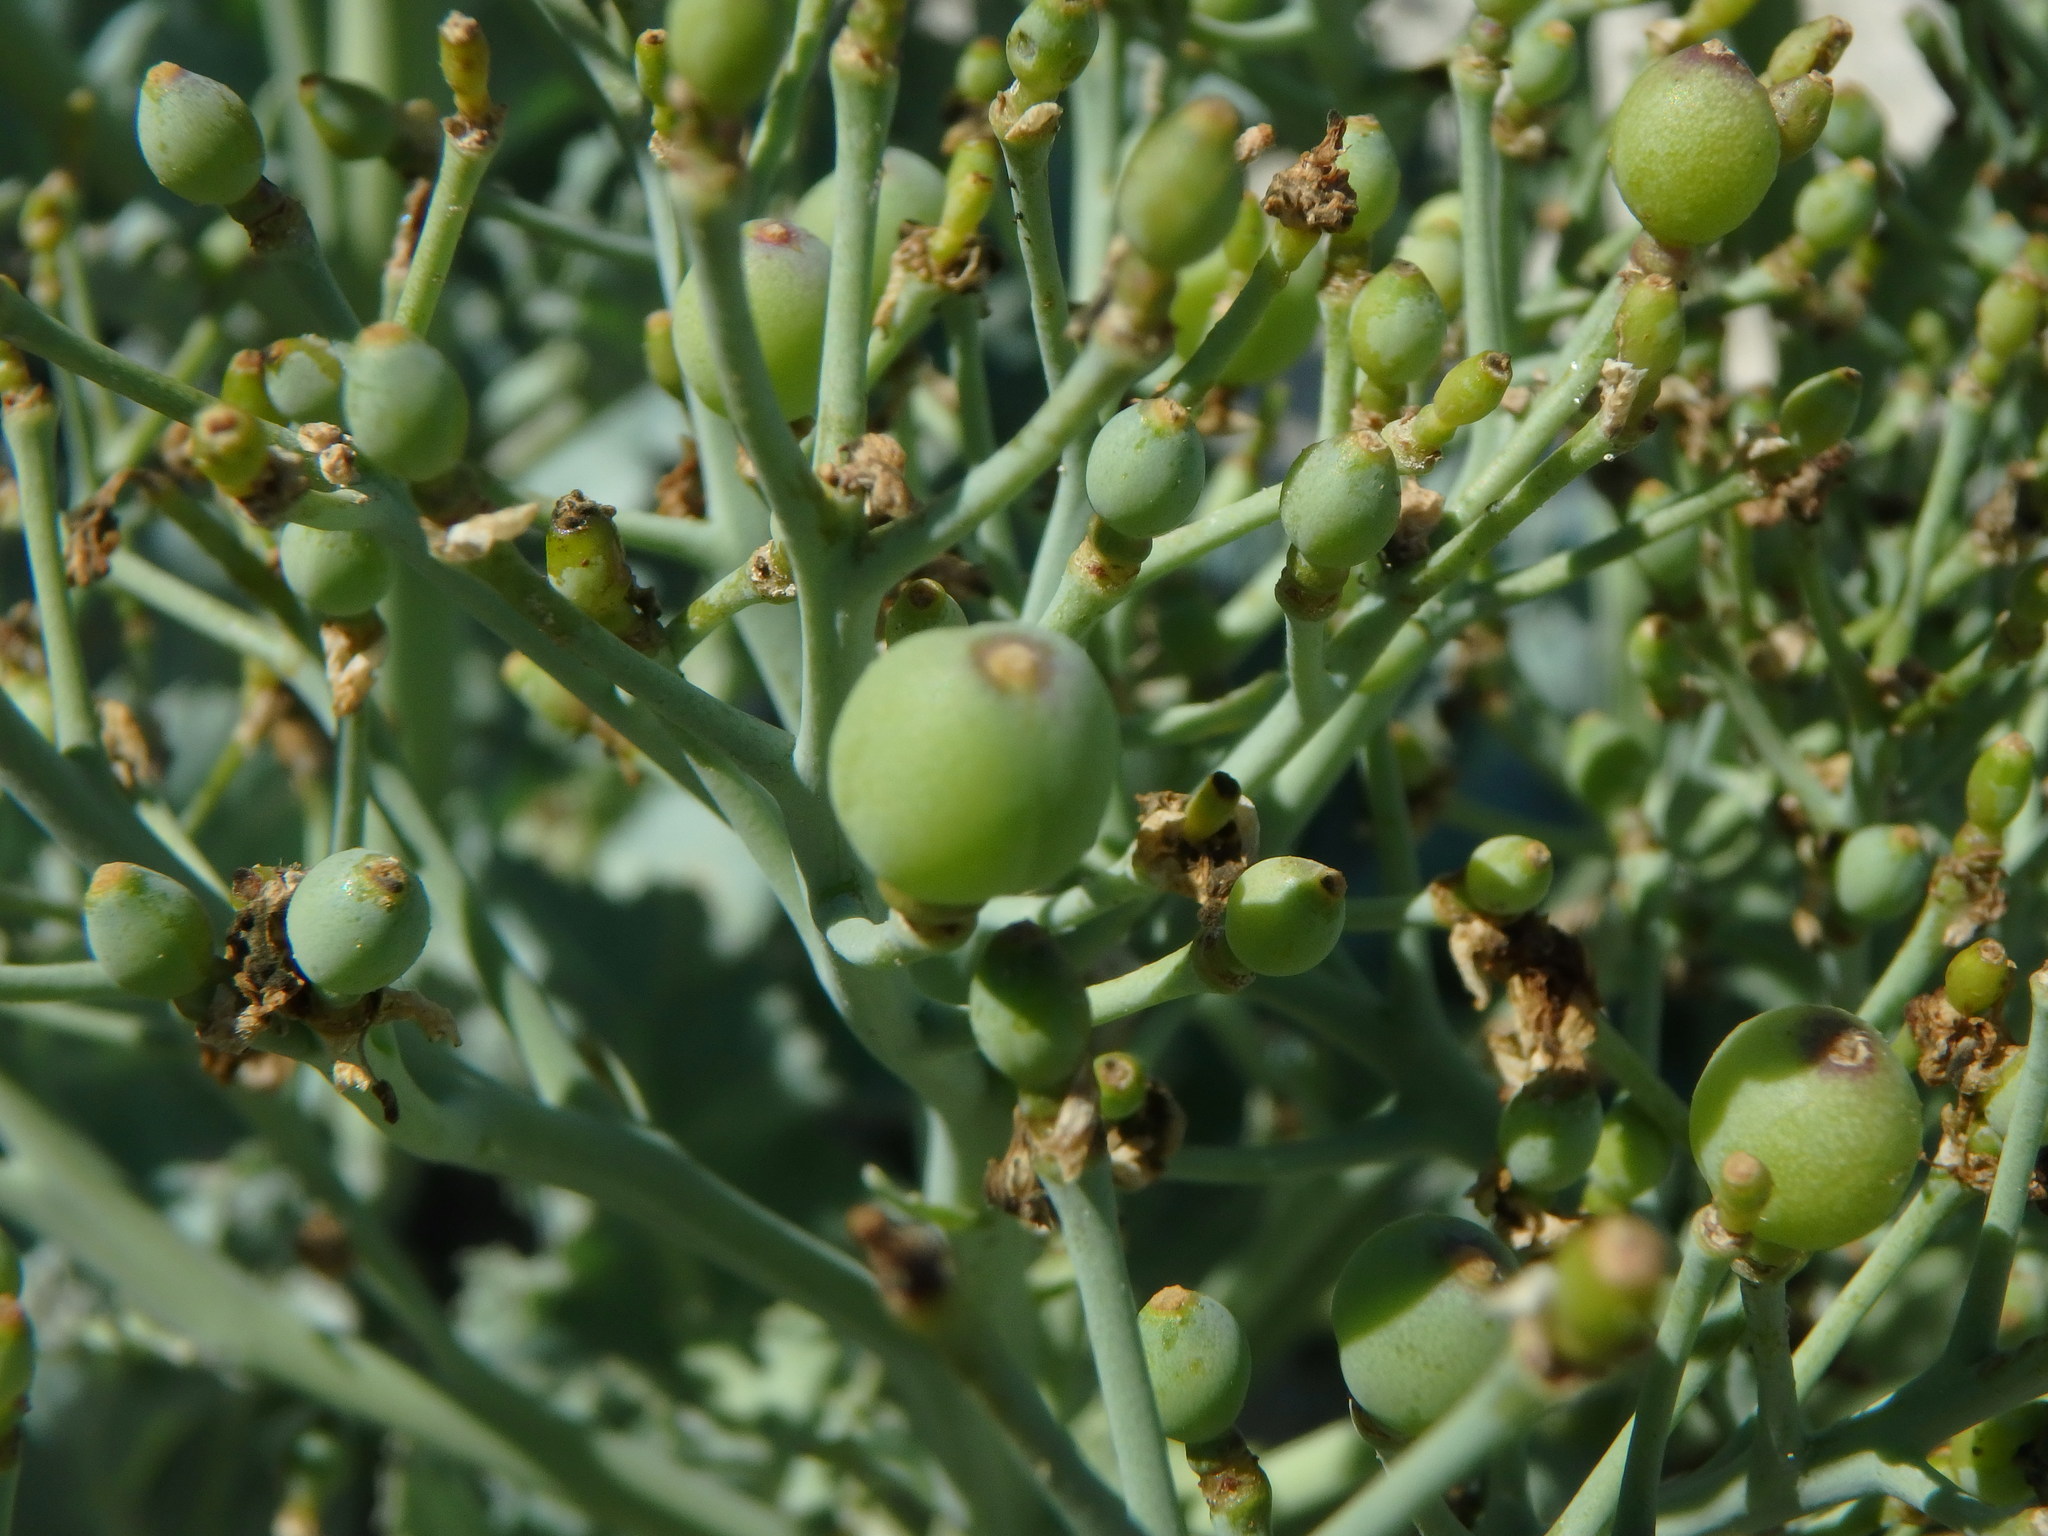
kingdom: Plantae
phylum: Tracheophyta
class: Magnoliopsida
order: Brassicales
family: Brassicaceae
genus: Crambe
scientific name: Crambe maritima
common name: Sea-kale
